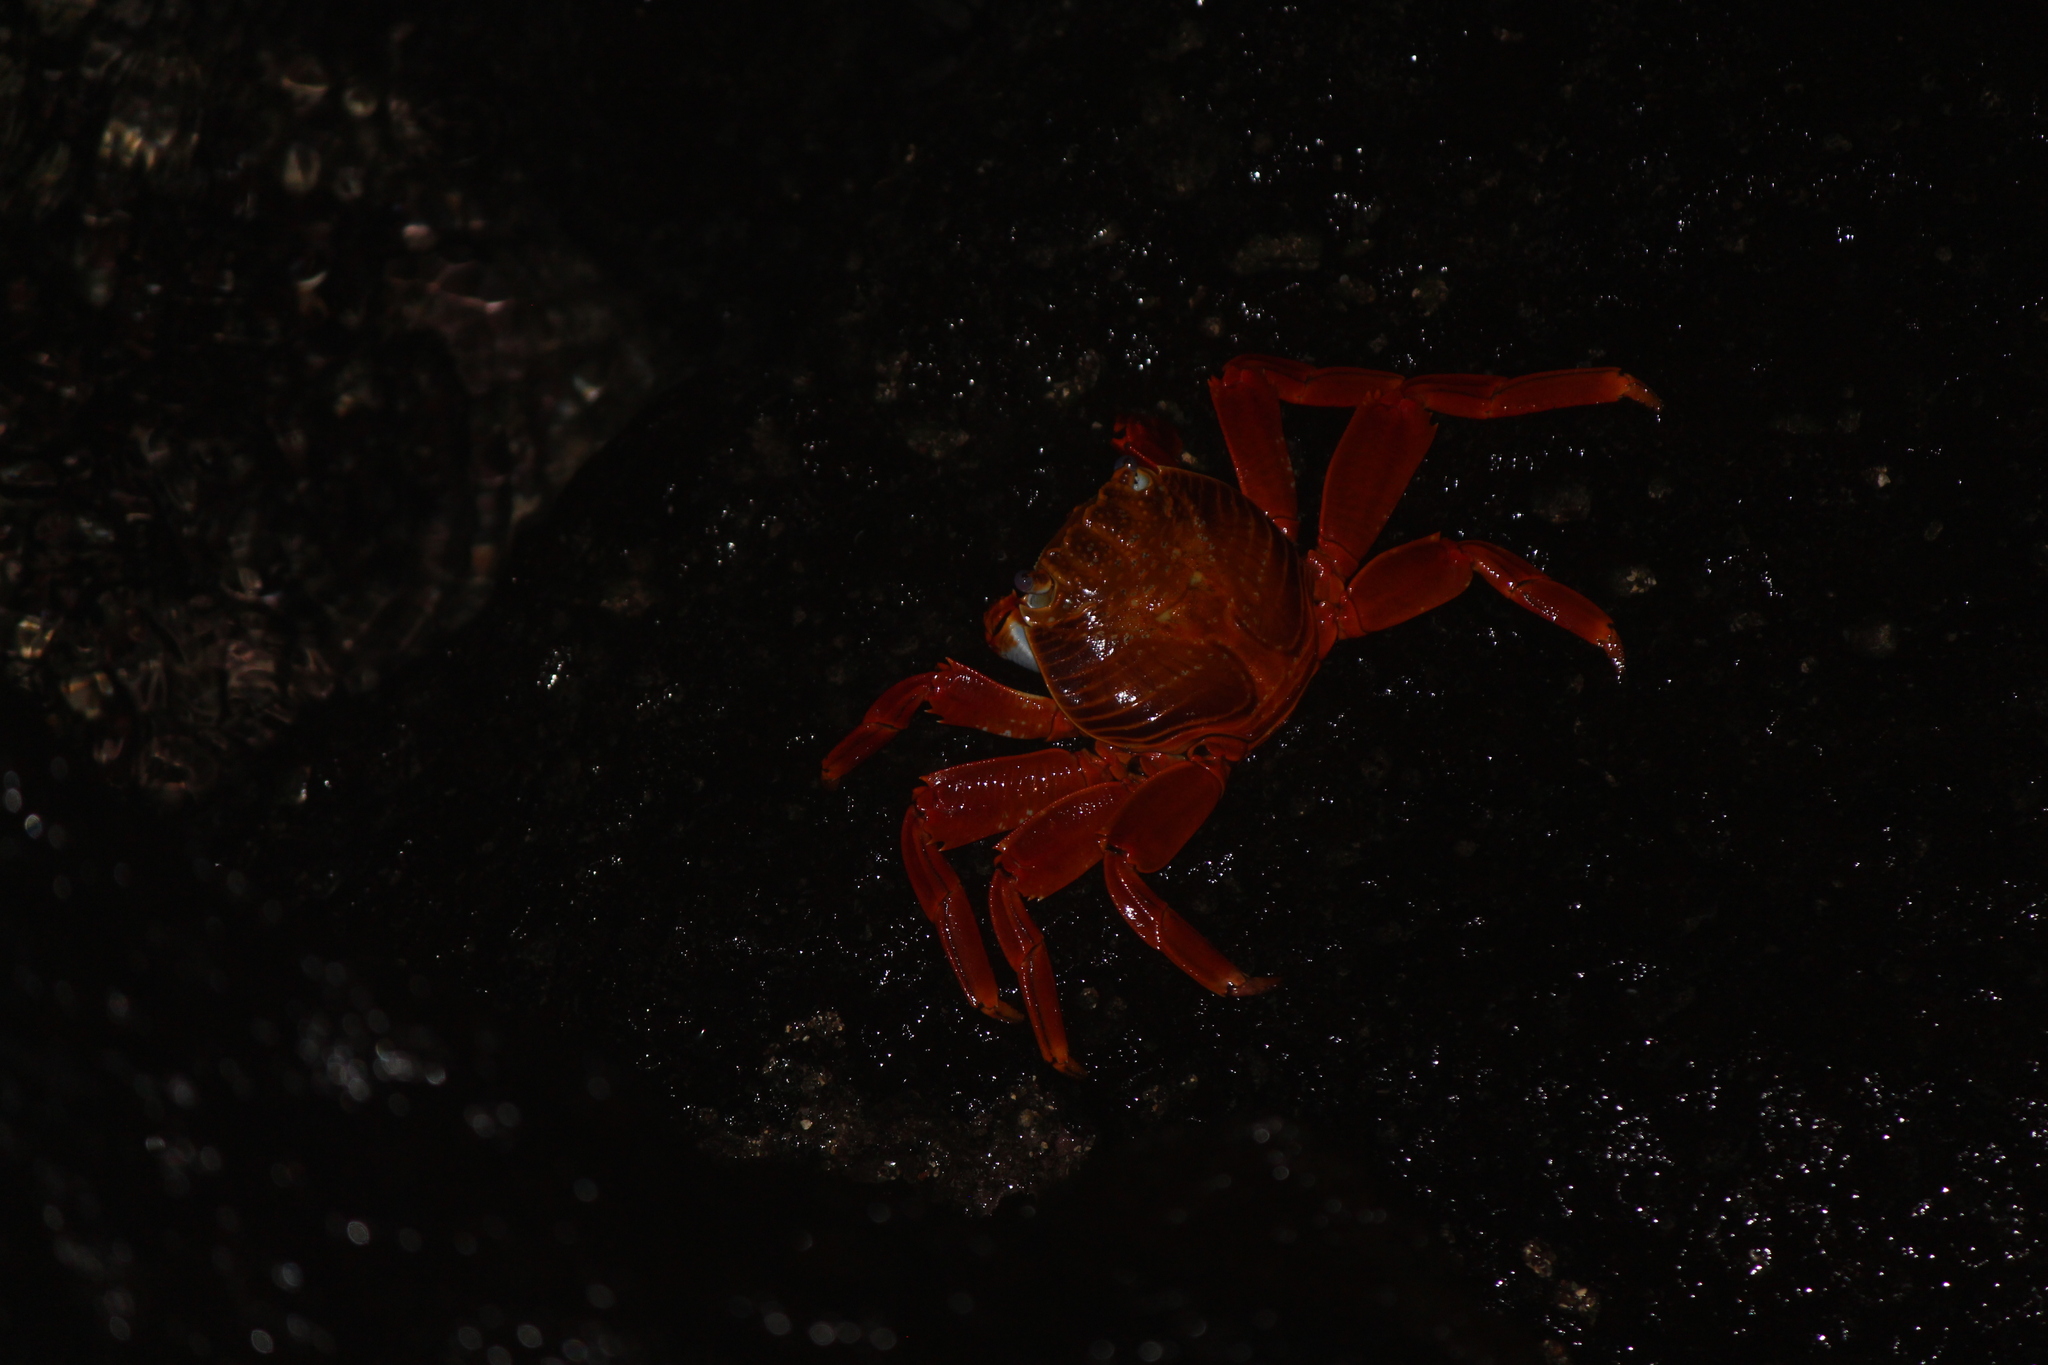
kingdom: Animalia
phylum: Arthropoda
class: Malacostraca
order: Decapoda
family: Grapsidae
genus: Grapsus
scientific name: Grapsus grapsus
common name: Sally lightfoot
